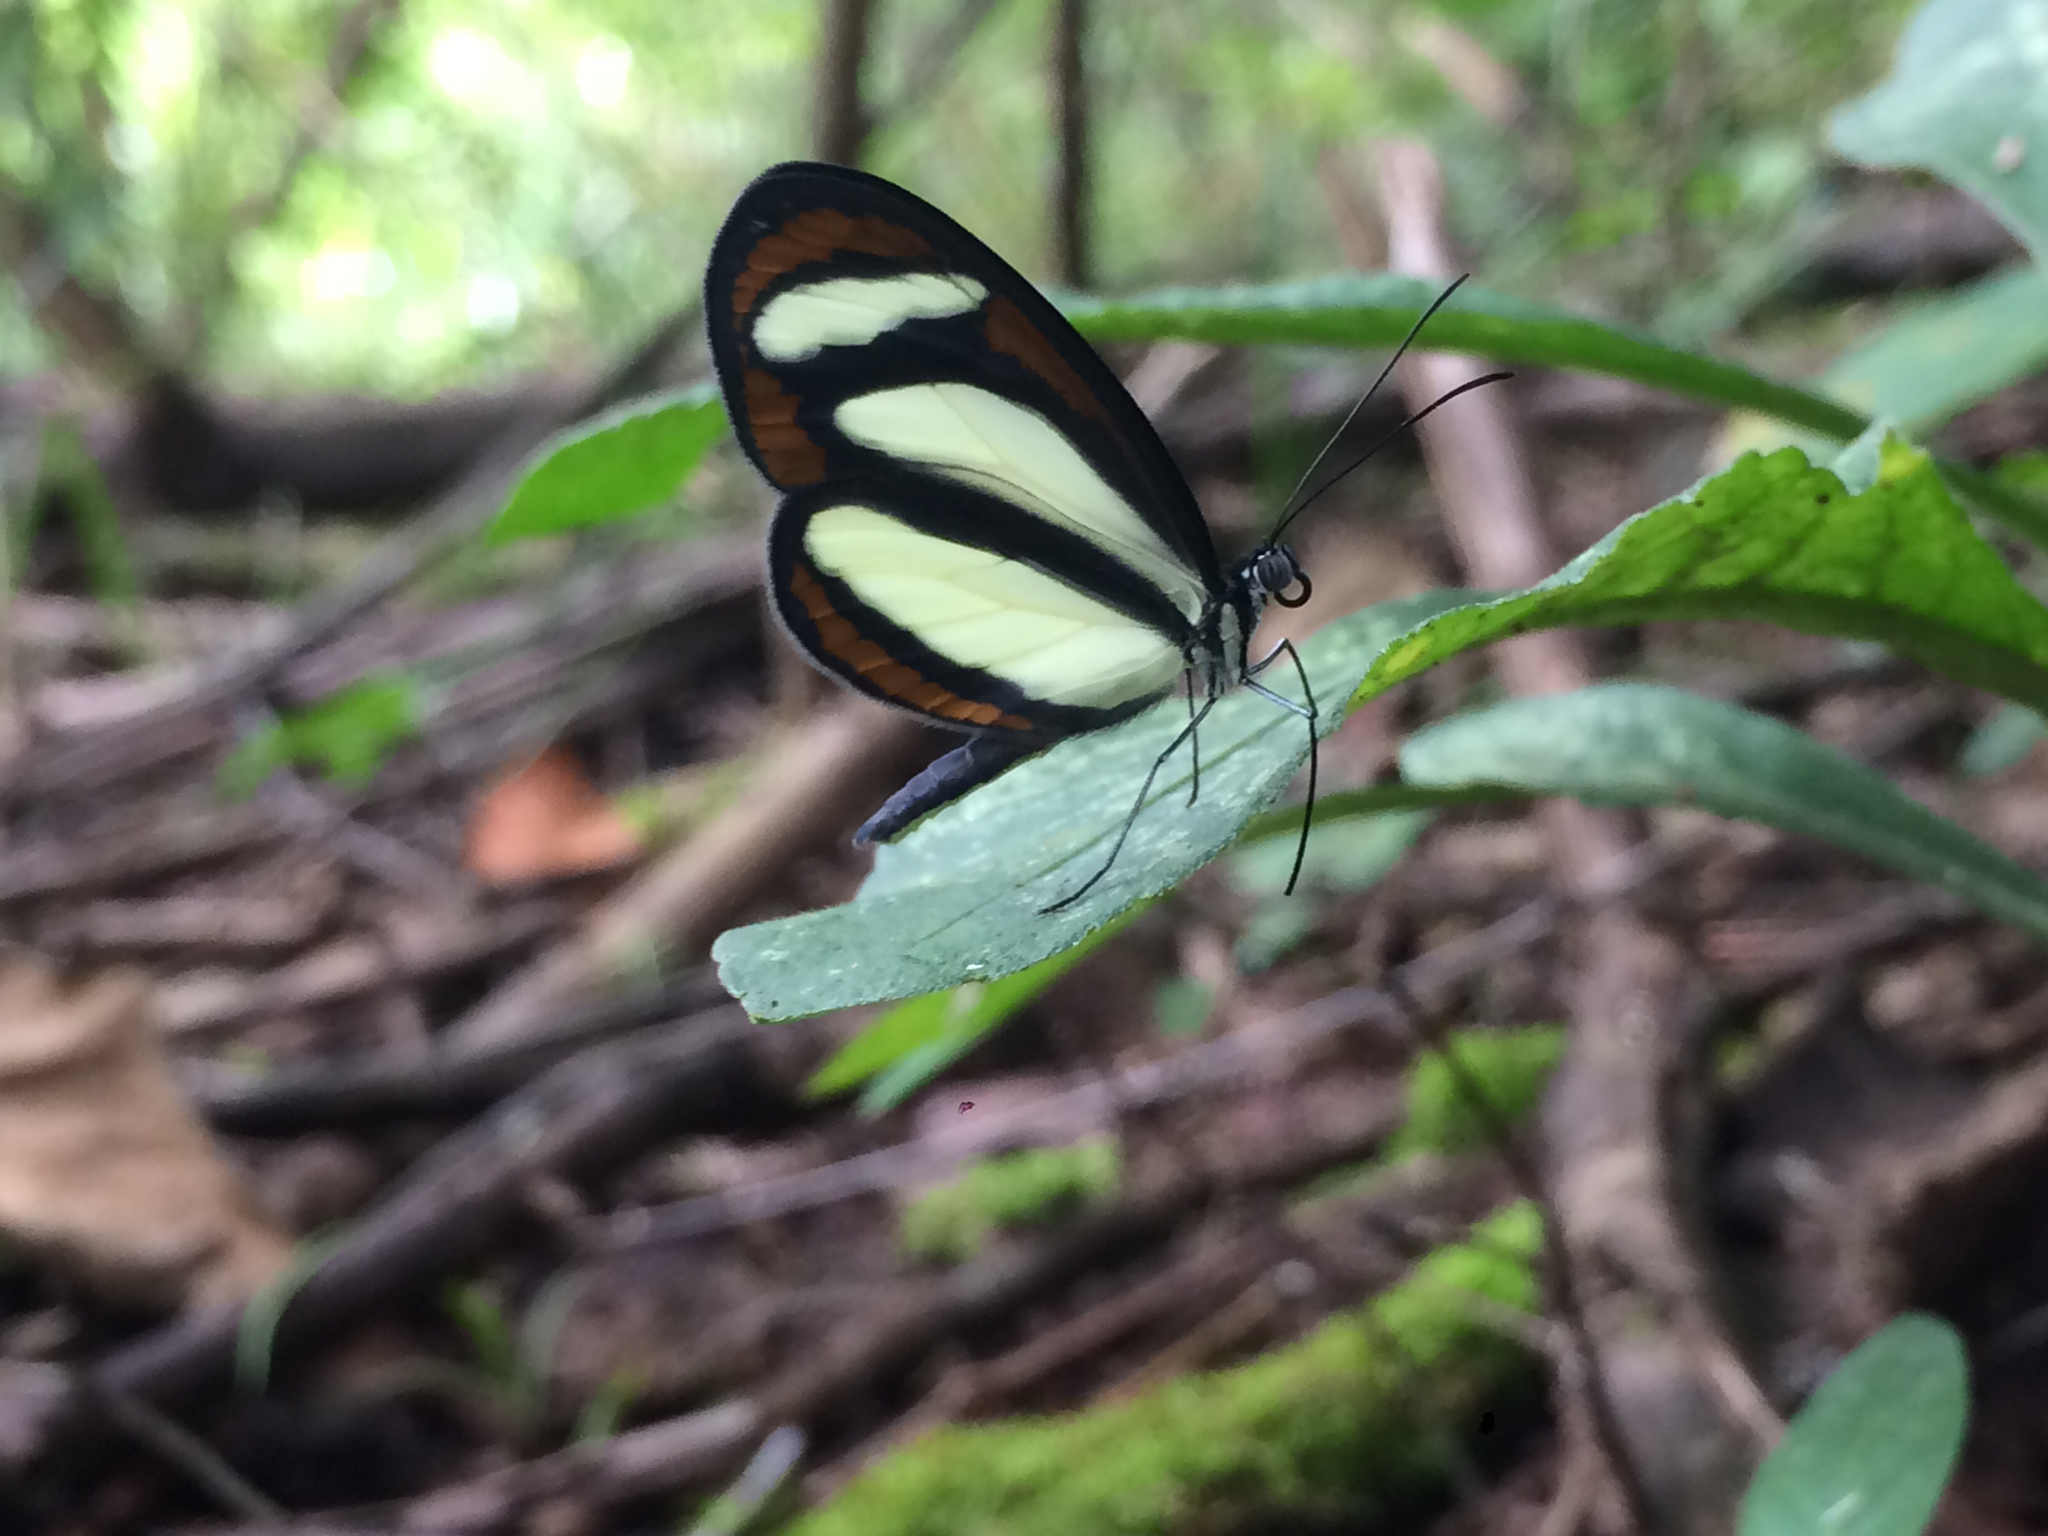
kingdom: Animalia
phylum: Arthropoda
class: Insecta
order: Lepidoptera
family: Nymphalidae
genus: Aeria
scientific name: Aeria elara
